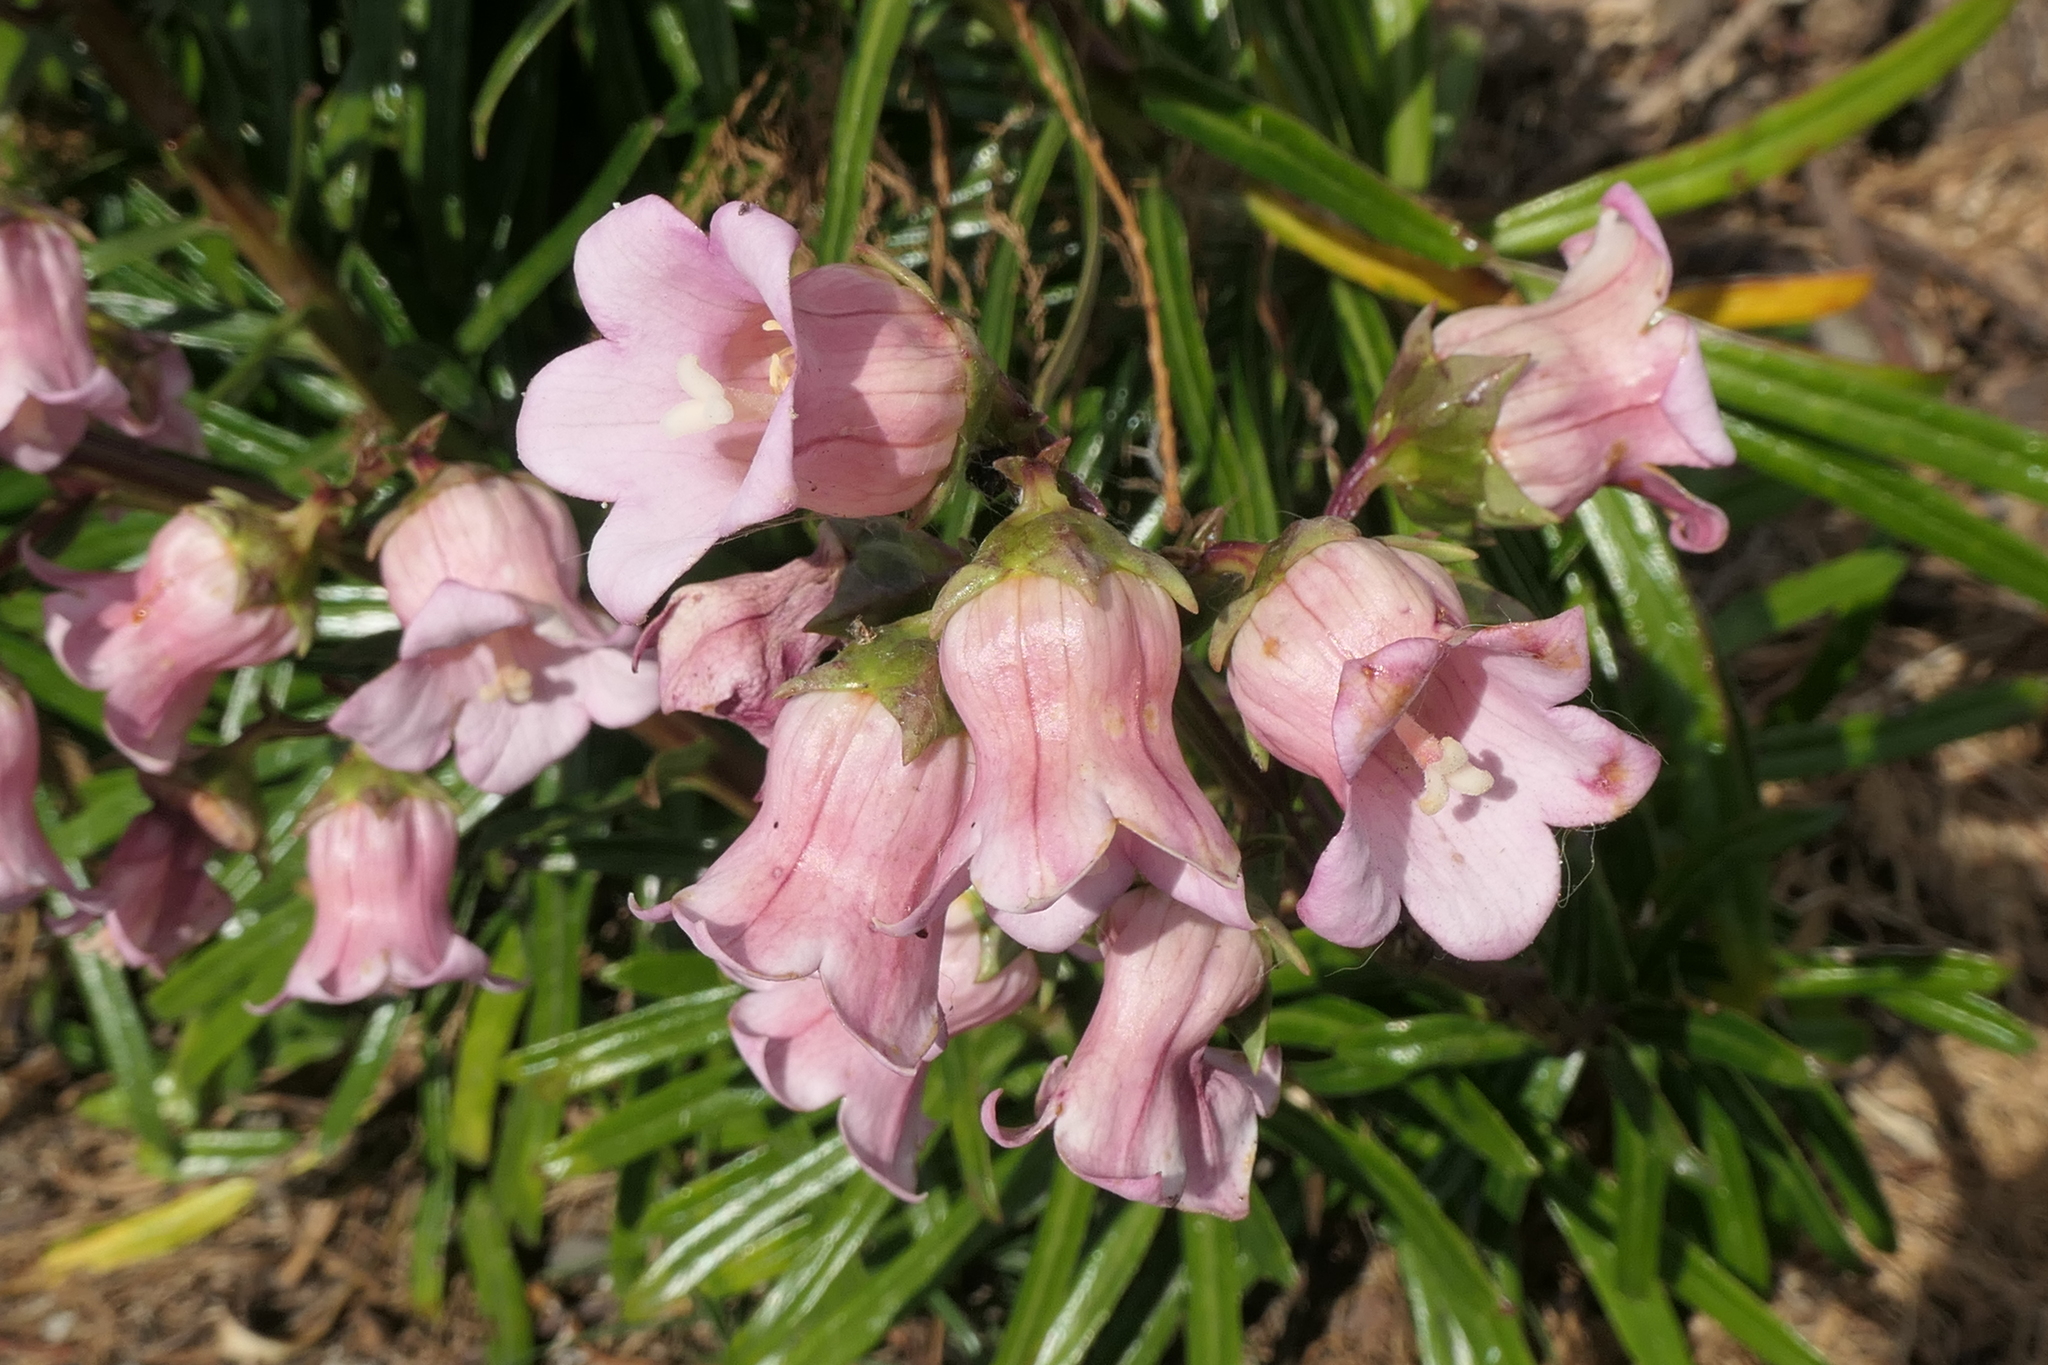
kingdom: Plantae
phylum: Tracheophyta
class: Magnoliopsida
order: Asterales
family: Campanulaceae
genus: Campanula
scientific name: Campanula vidalii
